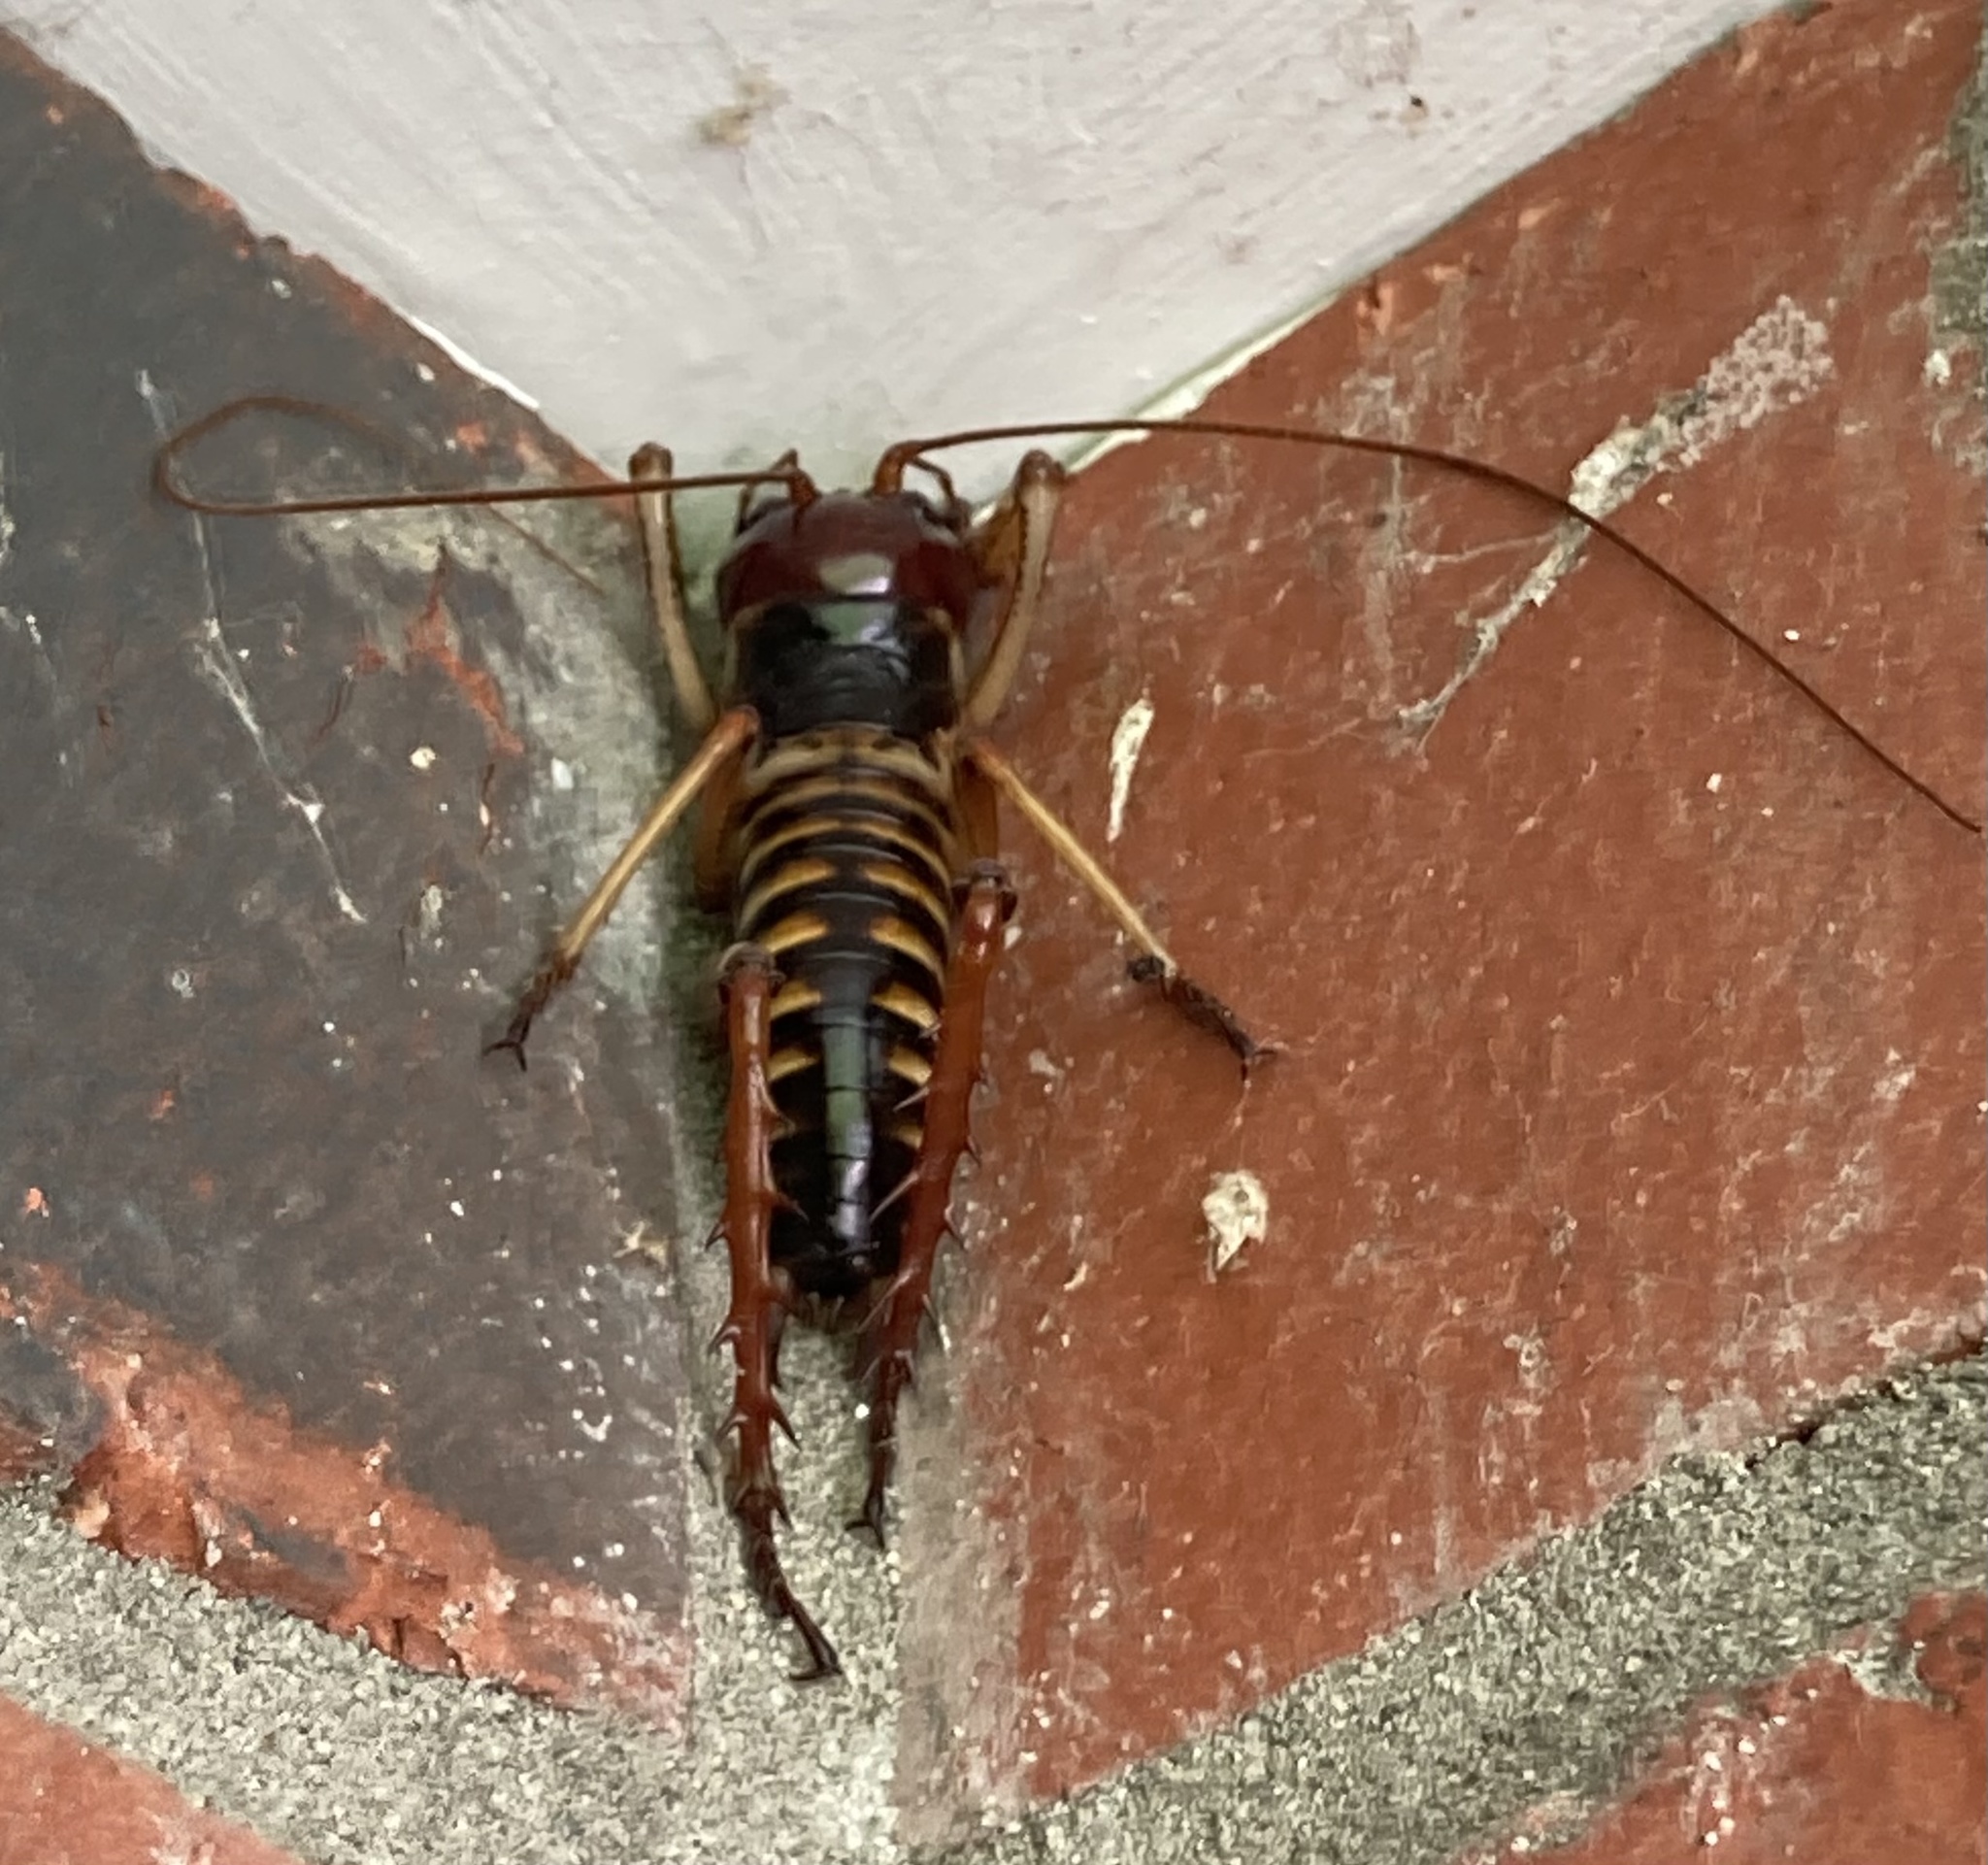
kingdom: Animalia
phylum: Arthropoda
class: Insecta
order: Orthoptera
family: Anostostomatidae
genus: Hemideina
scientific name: Hemideina crassidens
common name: Wellington tree weta
